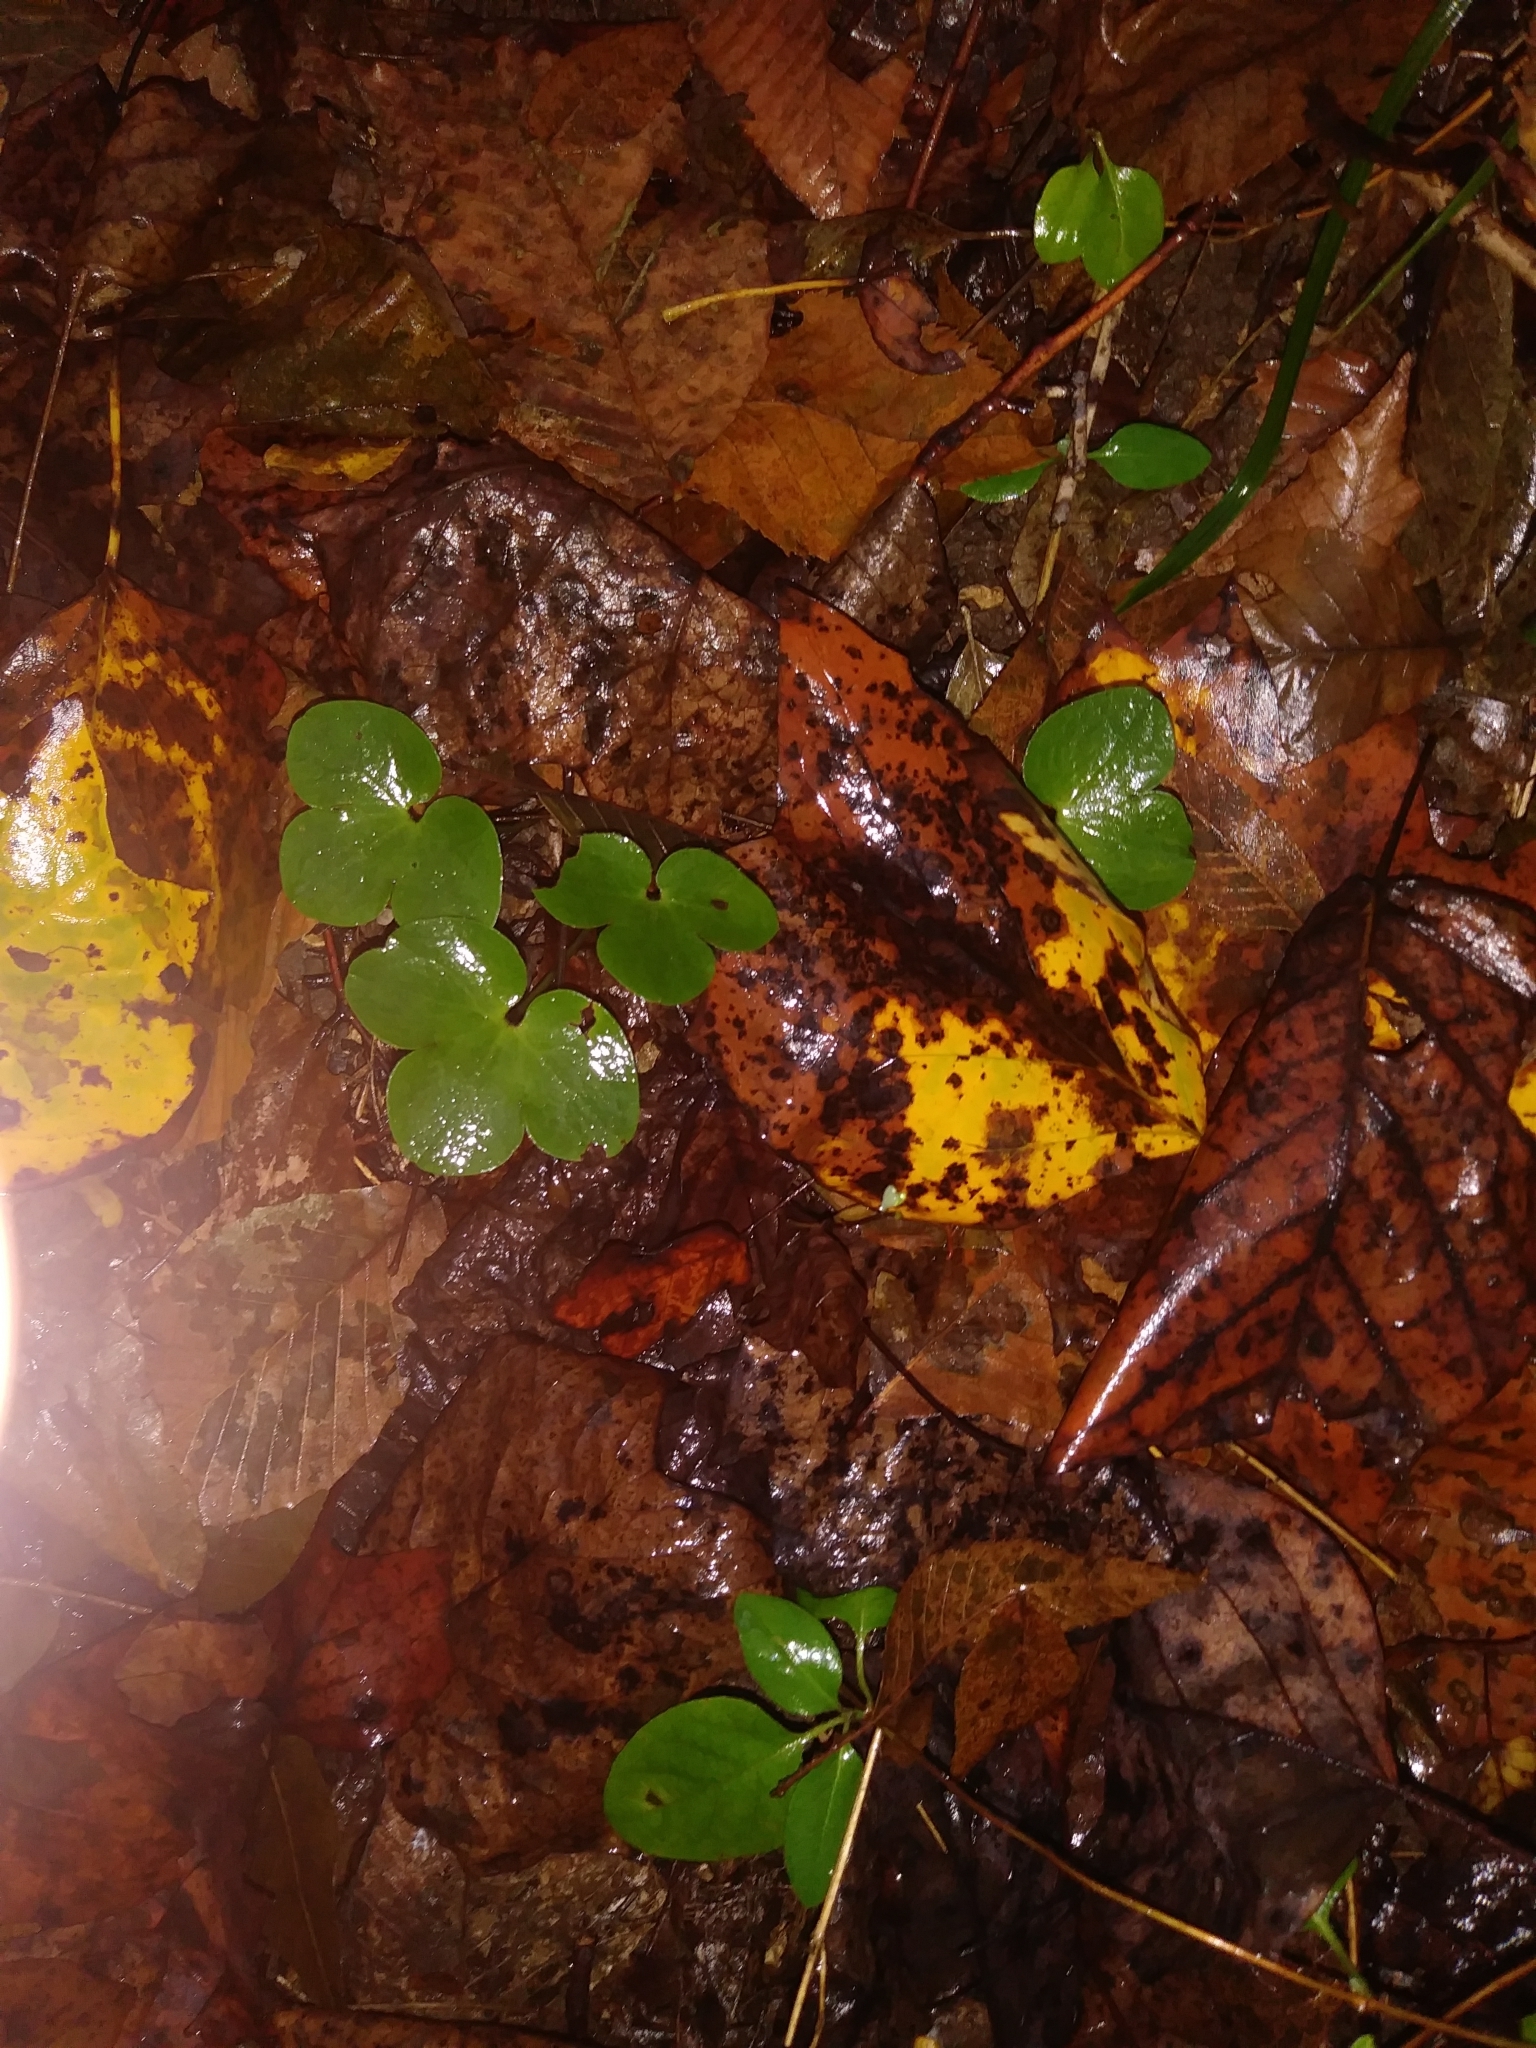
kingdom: Plantae
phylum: Tracheophyta
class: Magnoliopsida
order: Ranunculales
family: Ranunculaceae
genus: Hepatica
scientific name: Hepatica americana
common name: American hepatica
